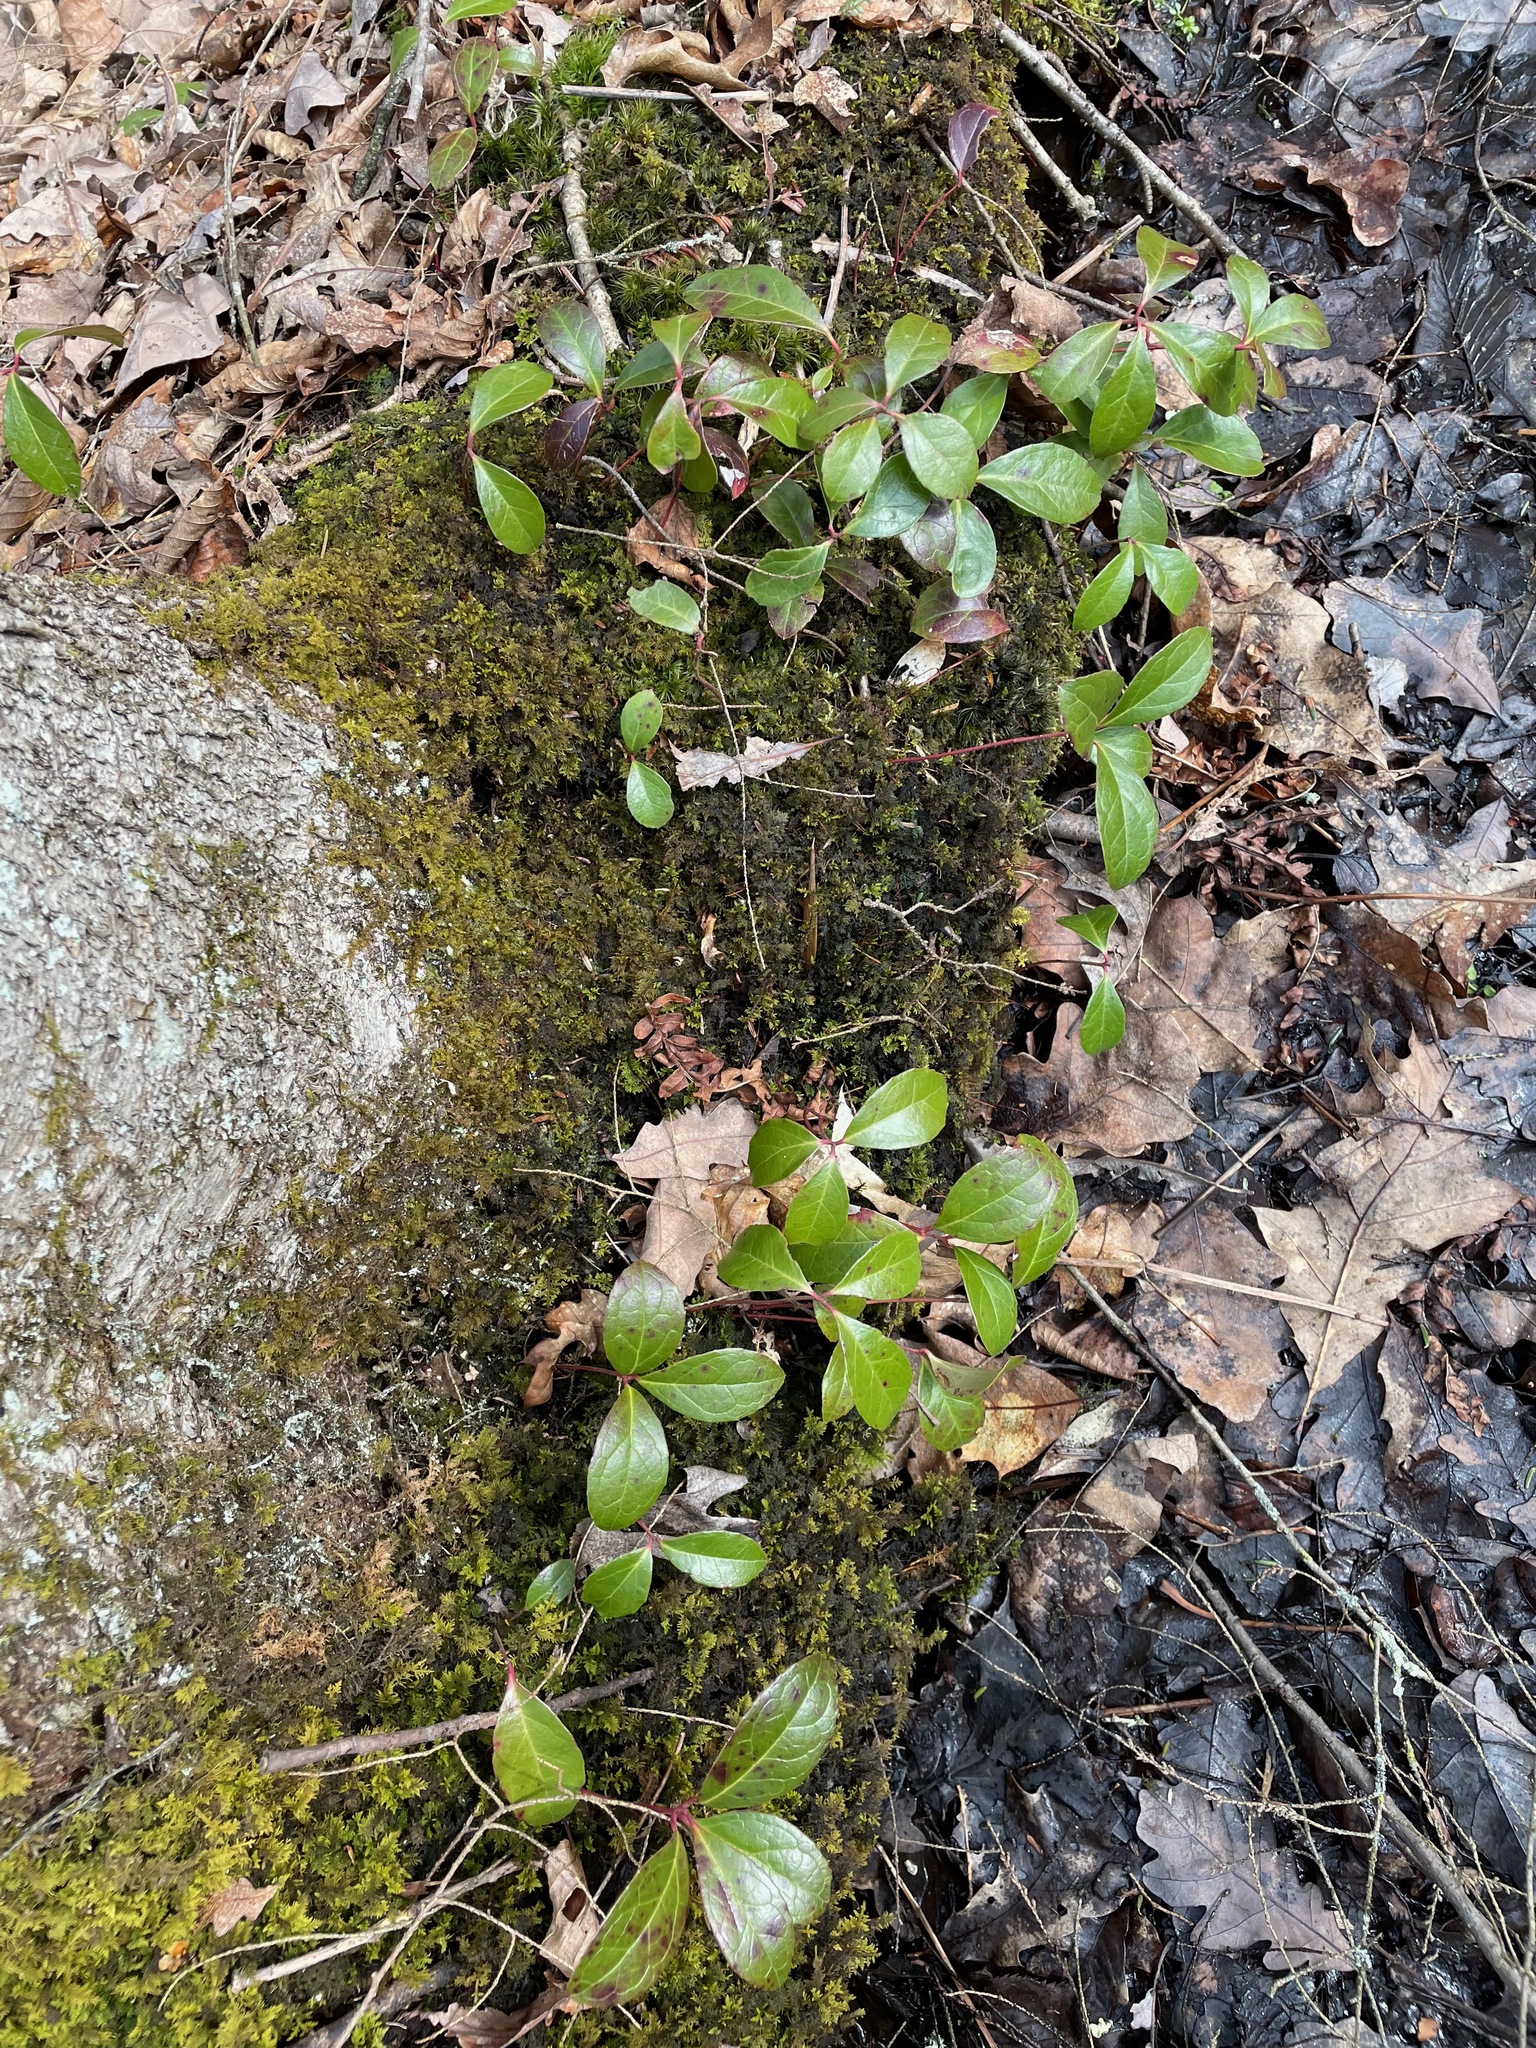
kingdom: Plantae
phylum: Tracheophyta
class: Magnoliopsida
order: Ericales
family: Ericaceae
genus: Gaultheria
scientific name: Gaultheria procumbens
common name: Checkerberry
